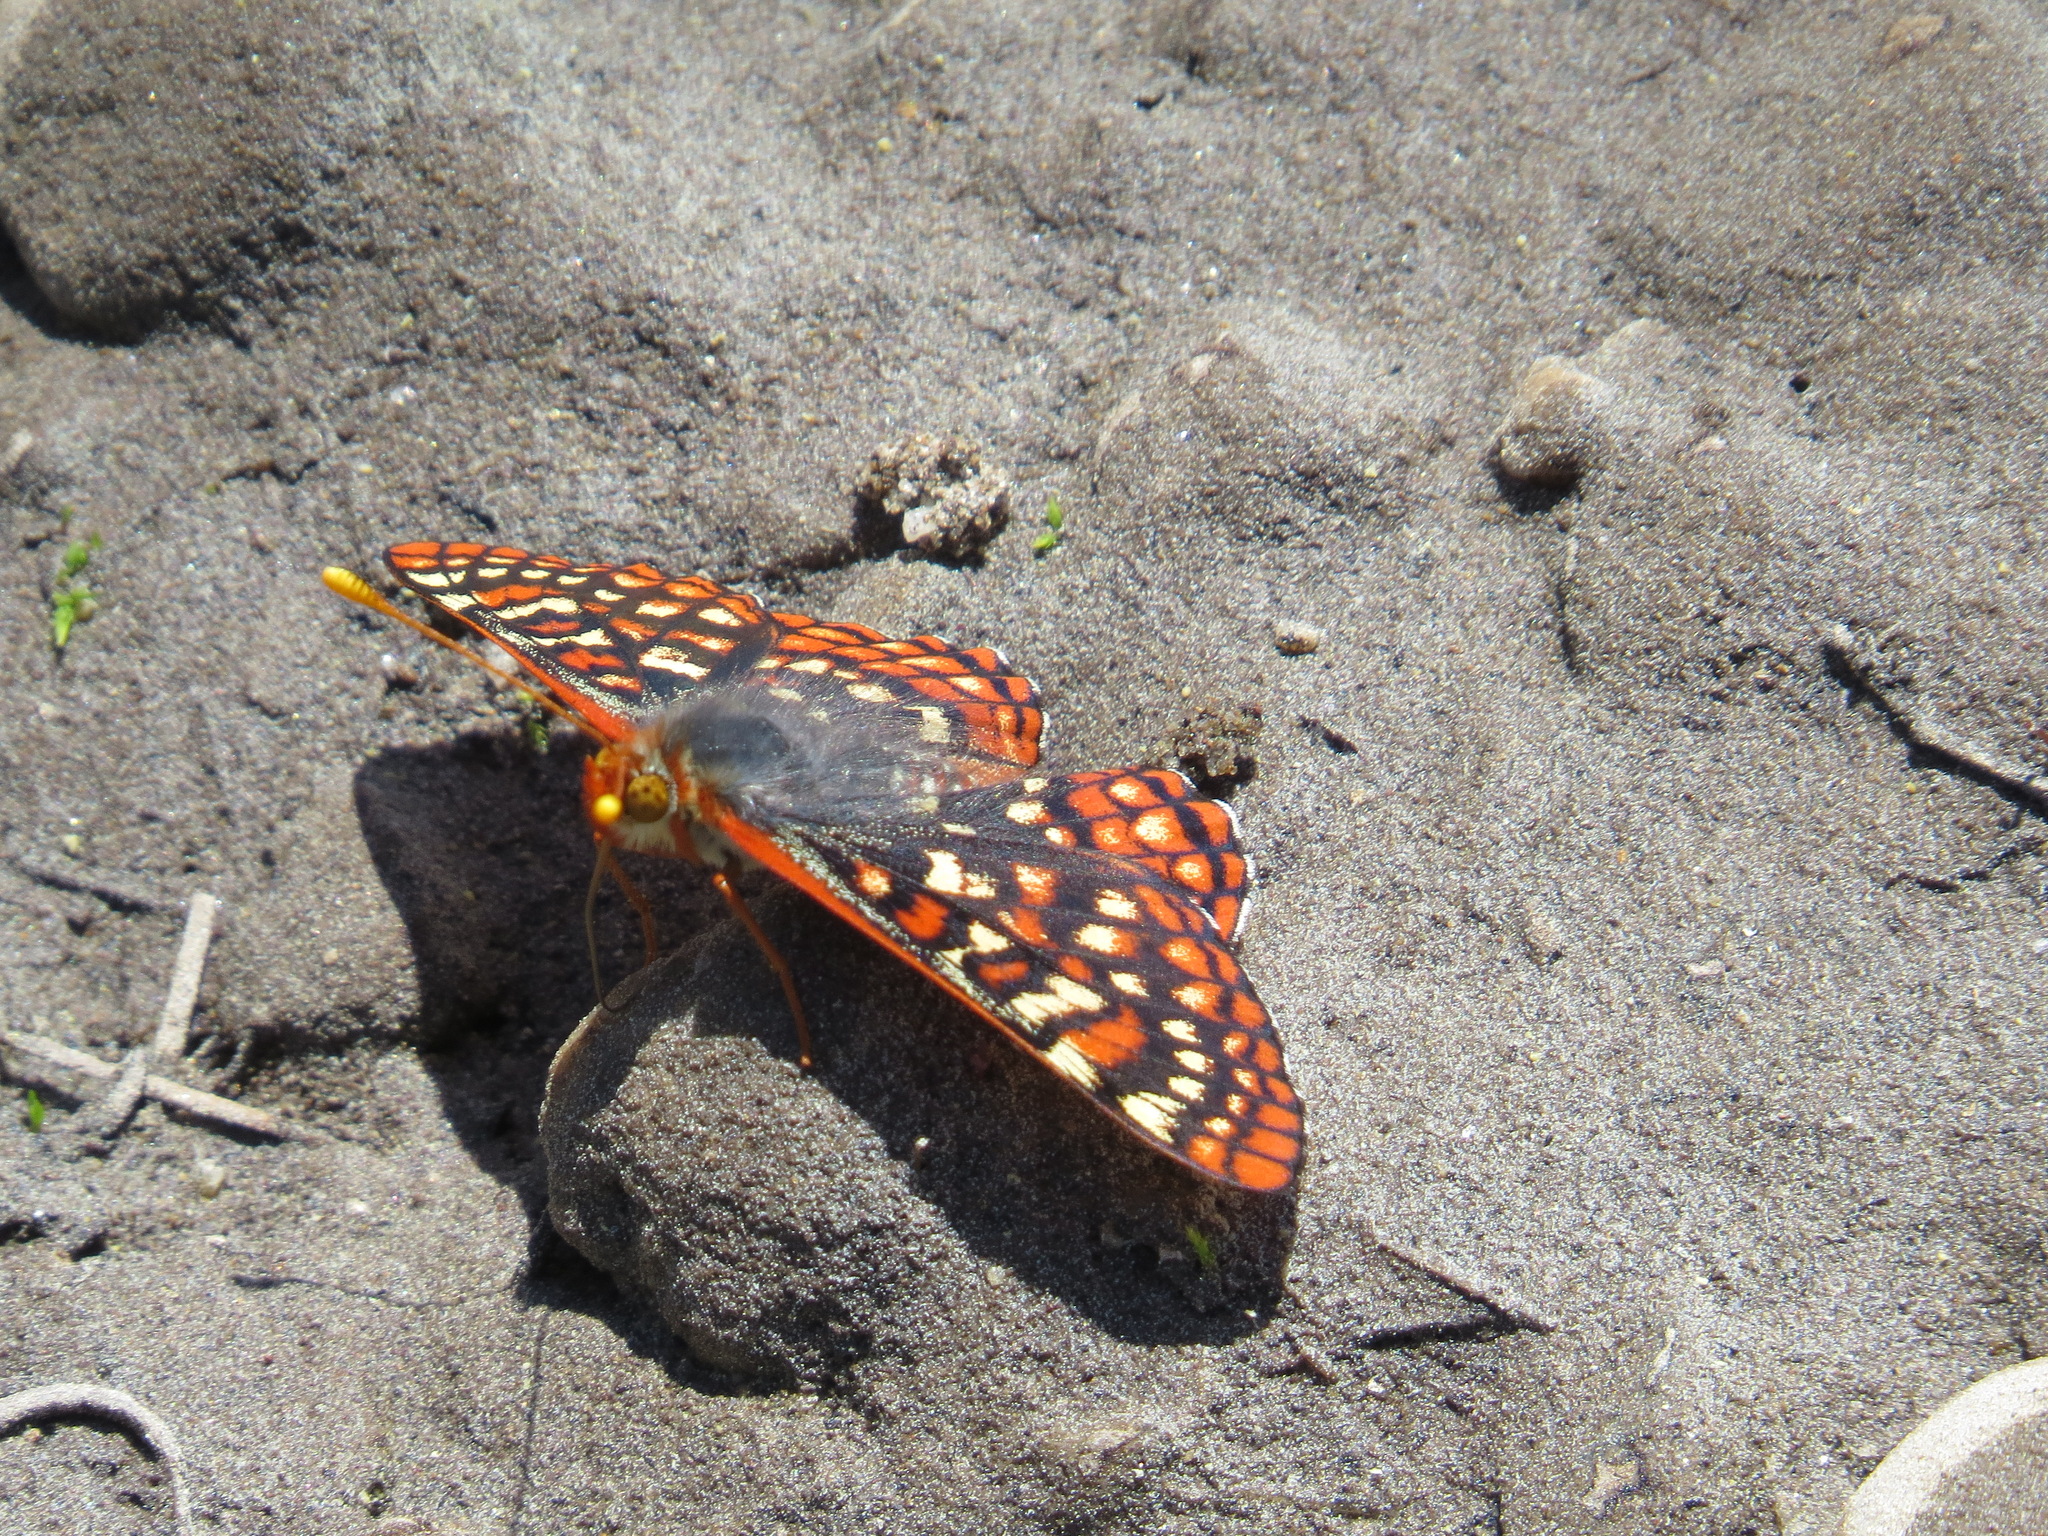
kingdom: Animalia
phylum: Arthropoda
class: Insecta
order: Lepidoptera
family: Nymphalidae
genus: Occidryas
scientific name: Occidryas chalcedona
